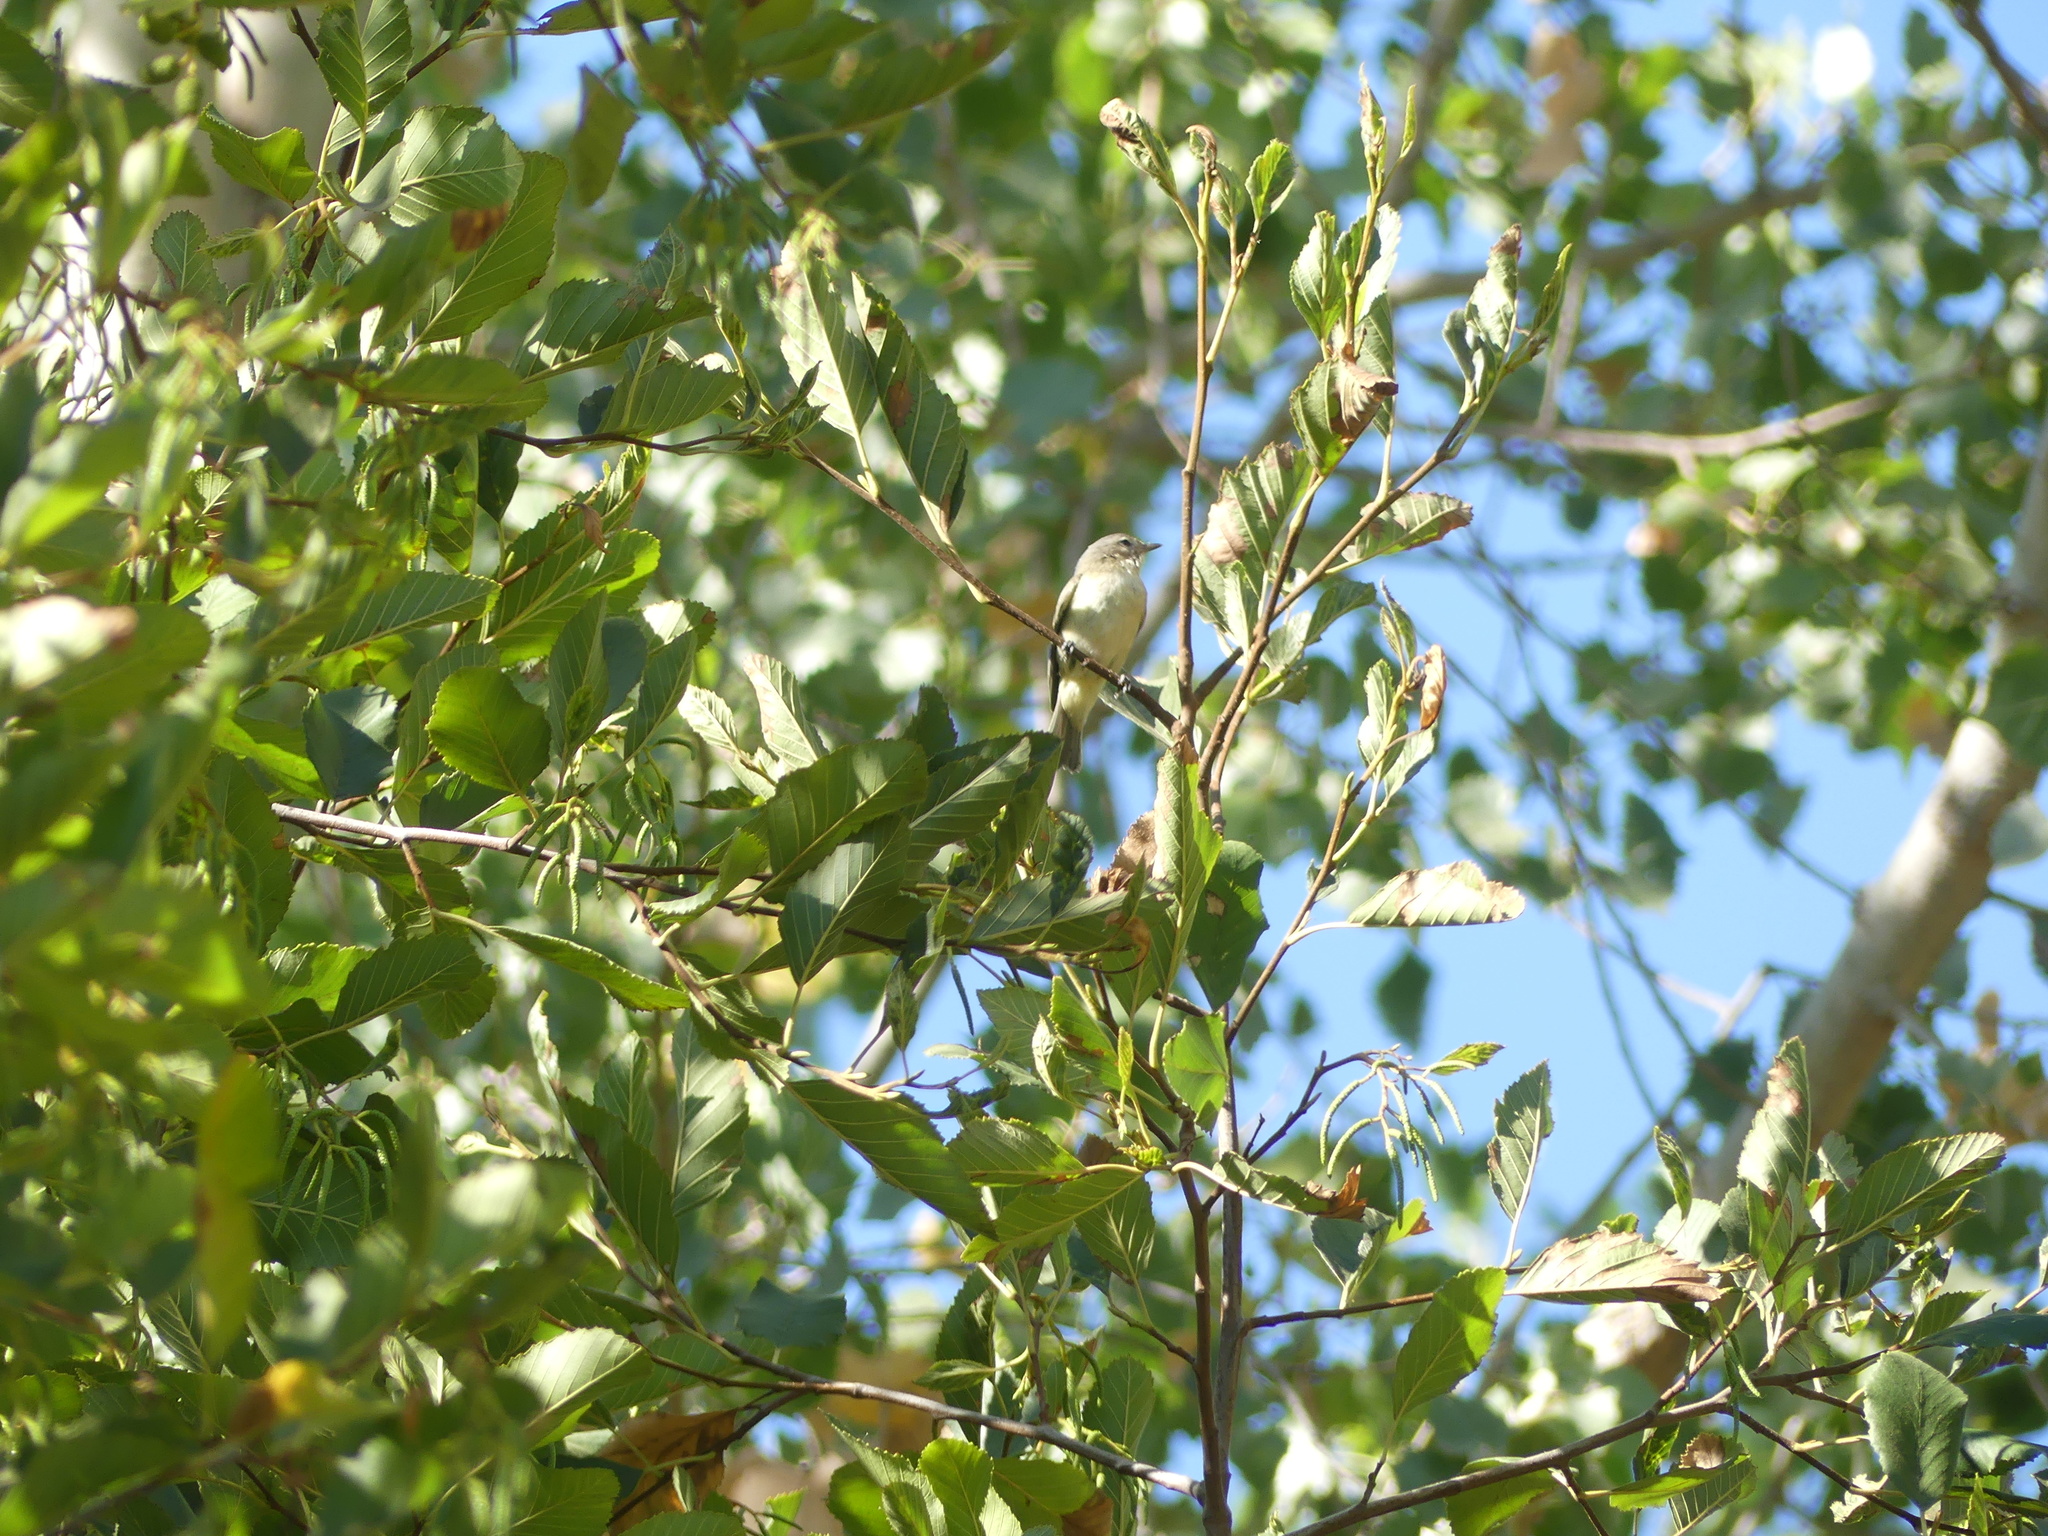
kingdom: Animalia
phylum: Chordata
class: Aves
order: Passeriformes
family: Vireonidae
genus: Vireo
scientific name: Vireo gilvus
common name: Warbling vireo
